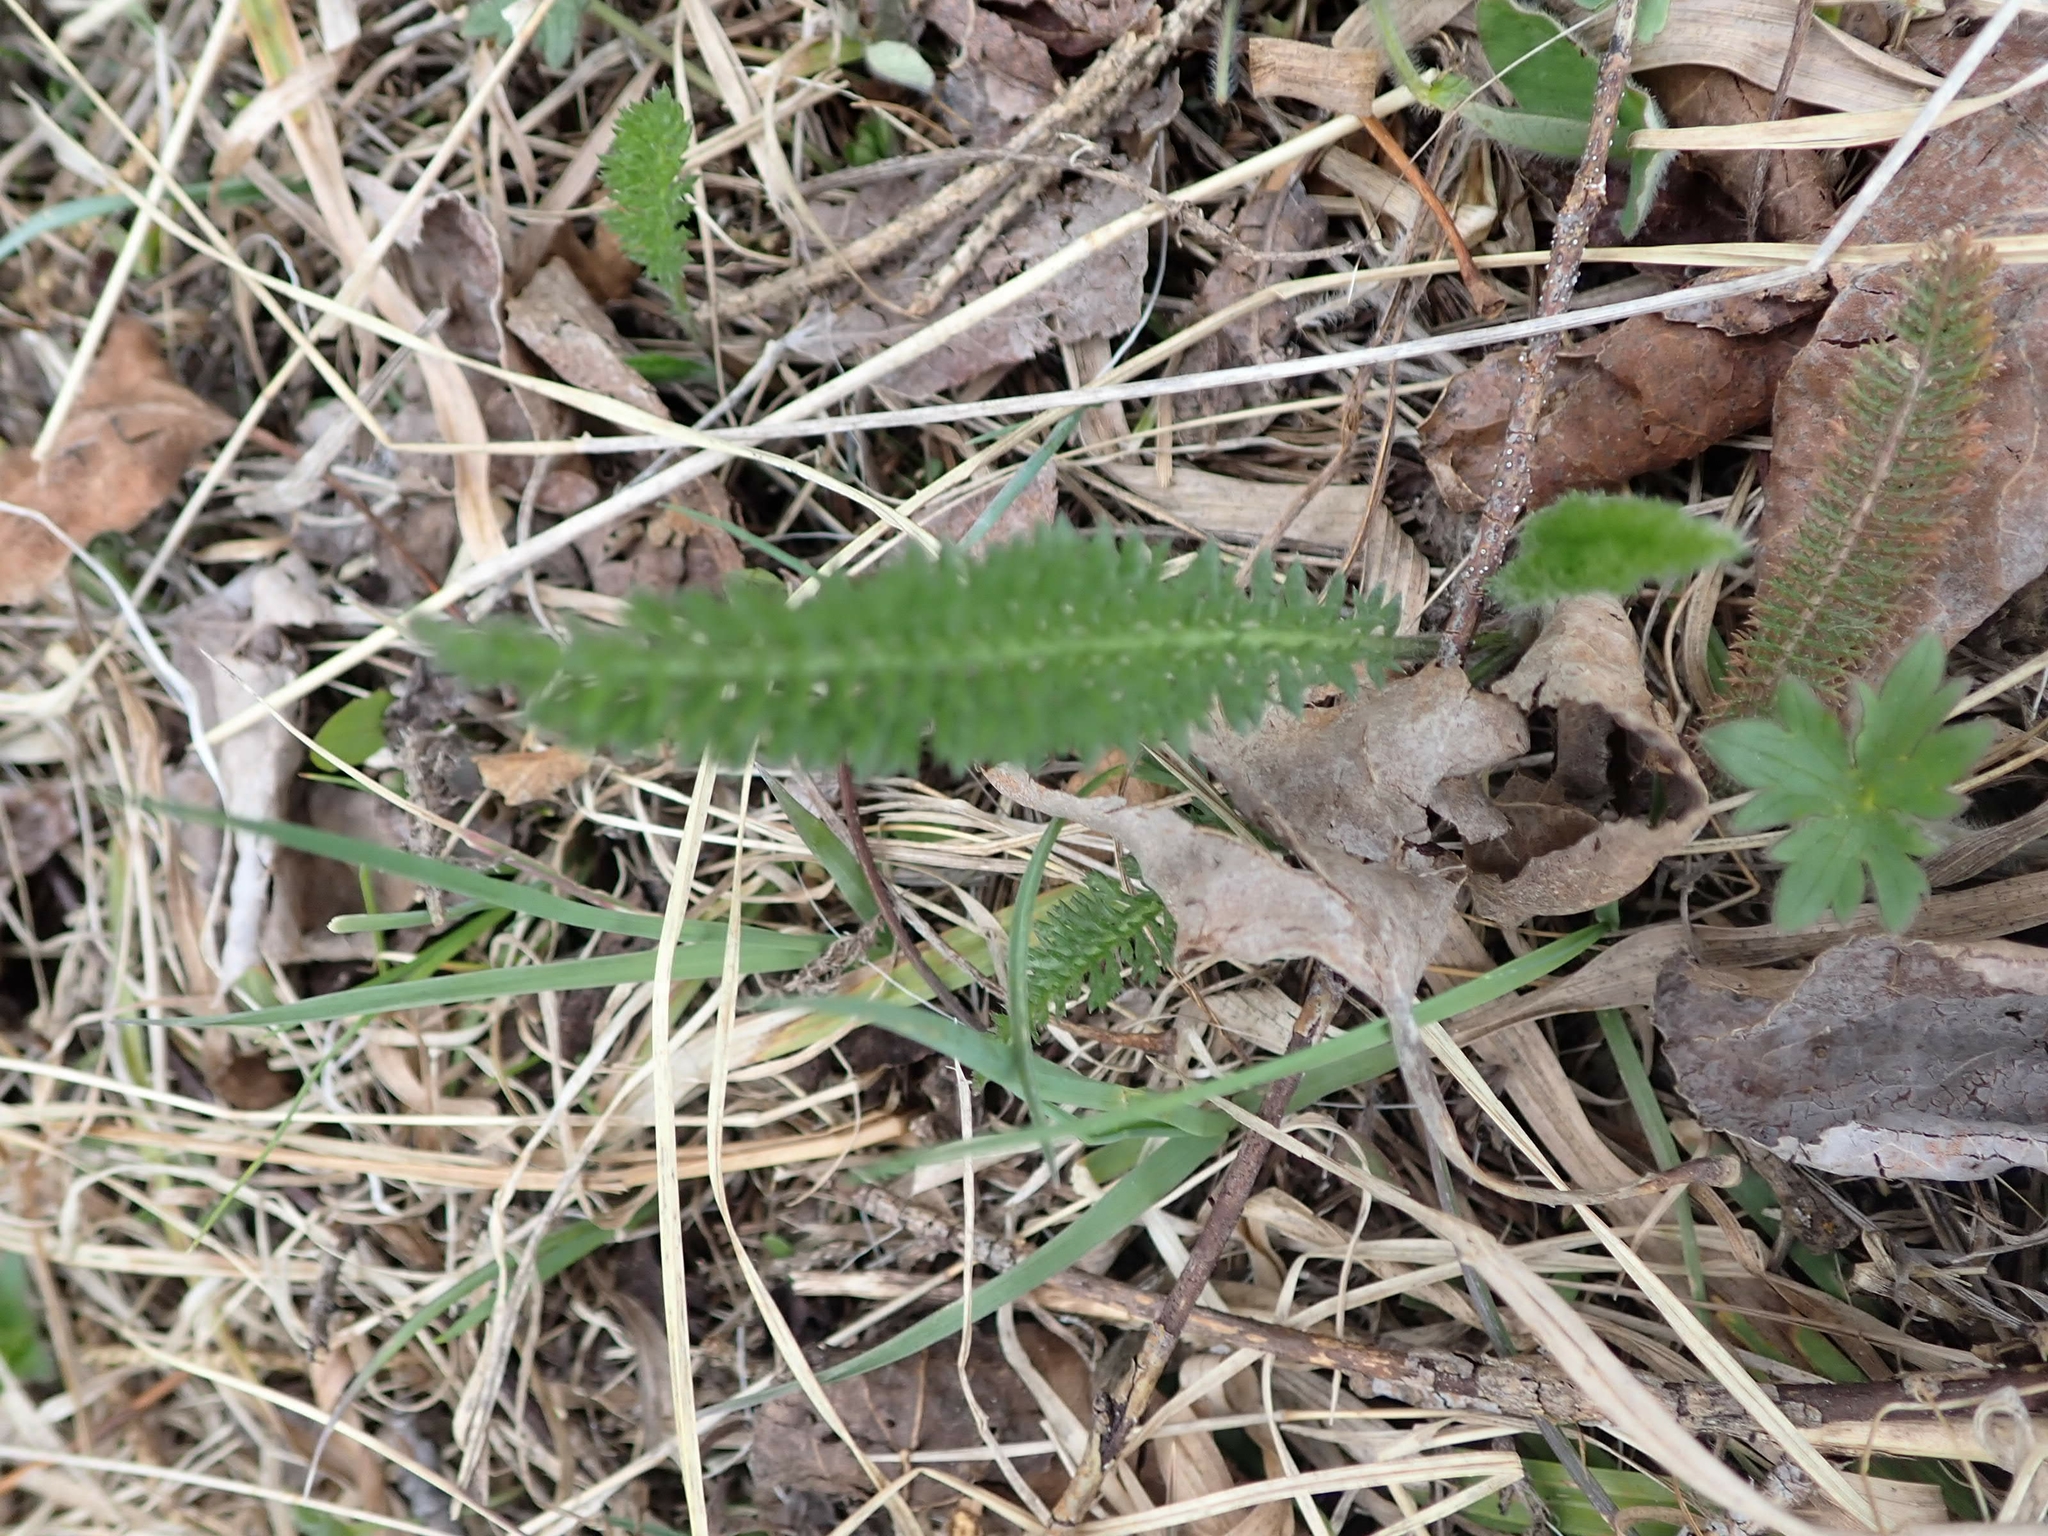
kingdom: Plantae
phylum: Tracheophyta
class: Magnoliopsida
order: Asterales
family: Asteraceae
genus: Achillea
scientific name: Achillea millefolium
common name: Yarrow
